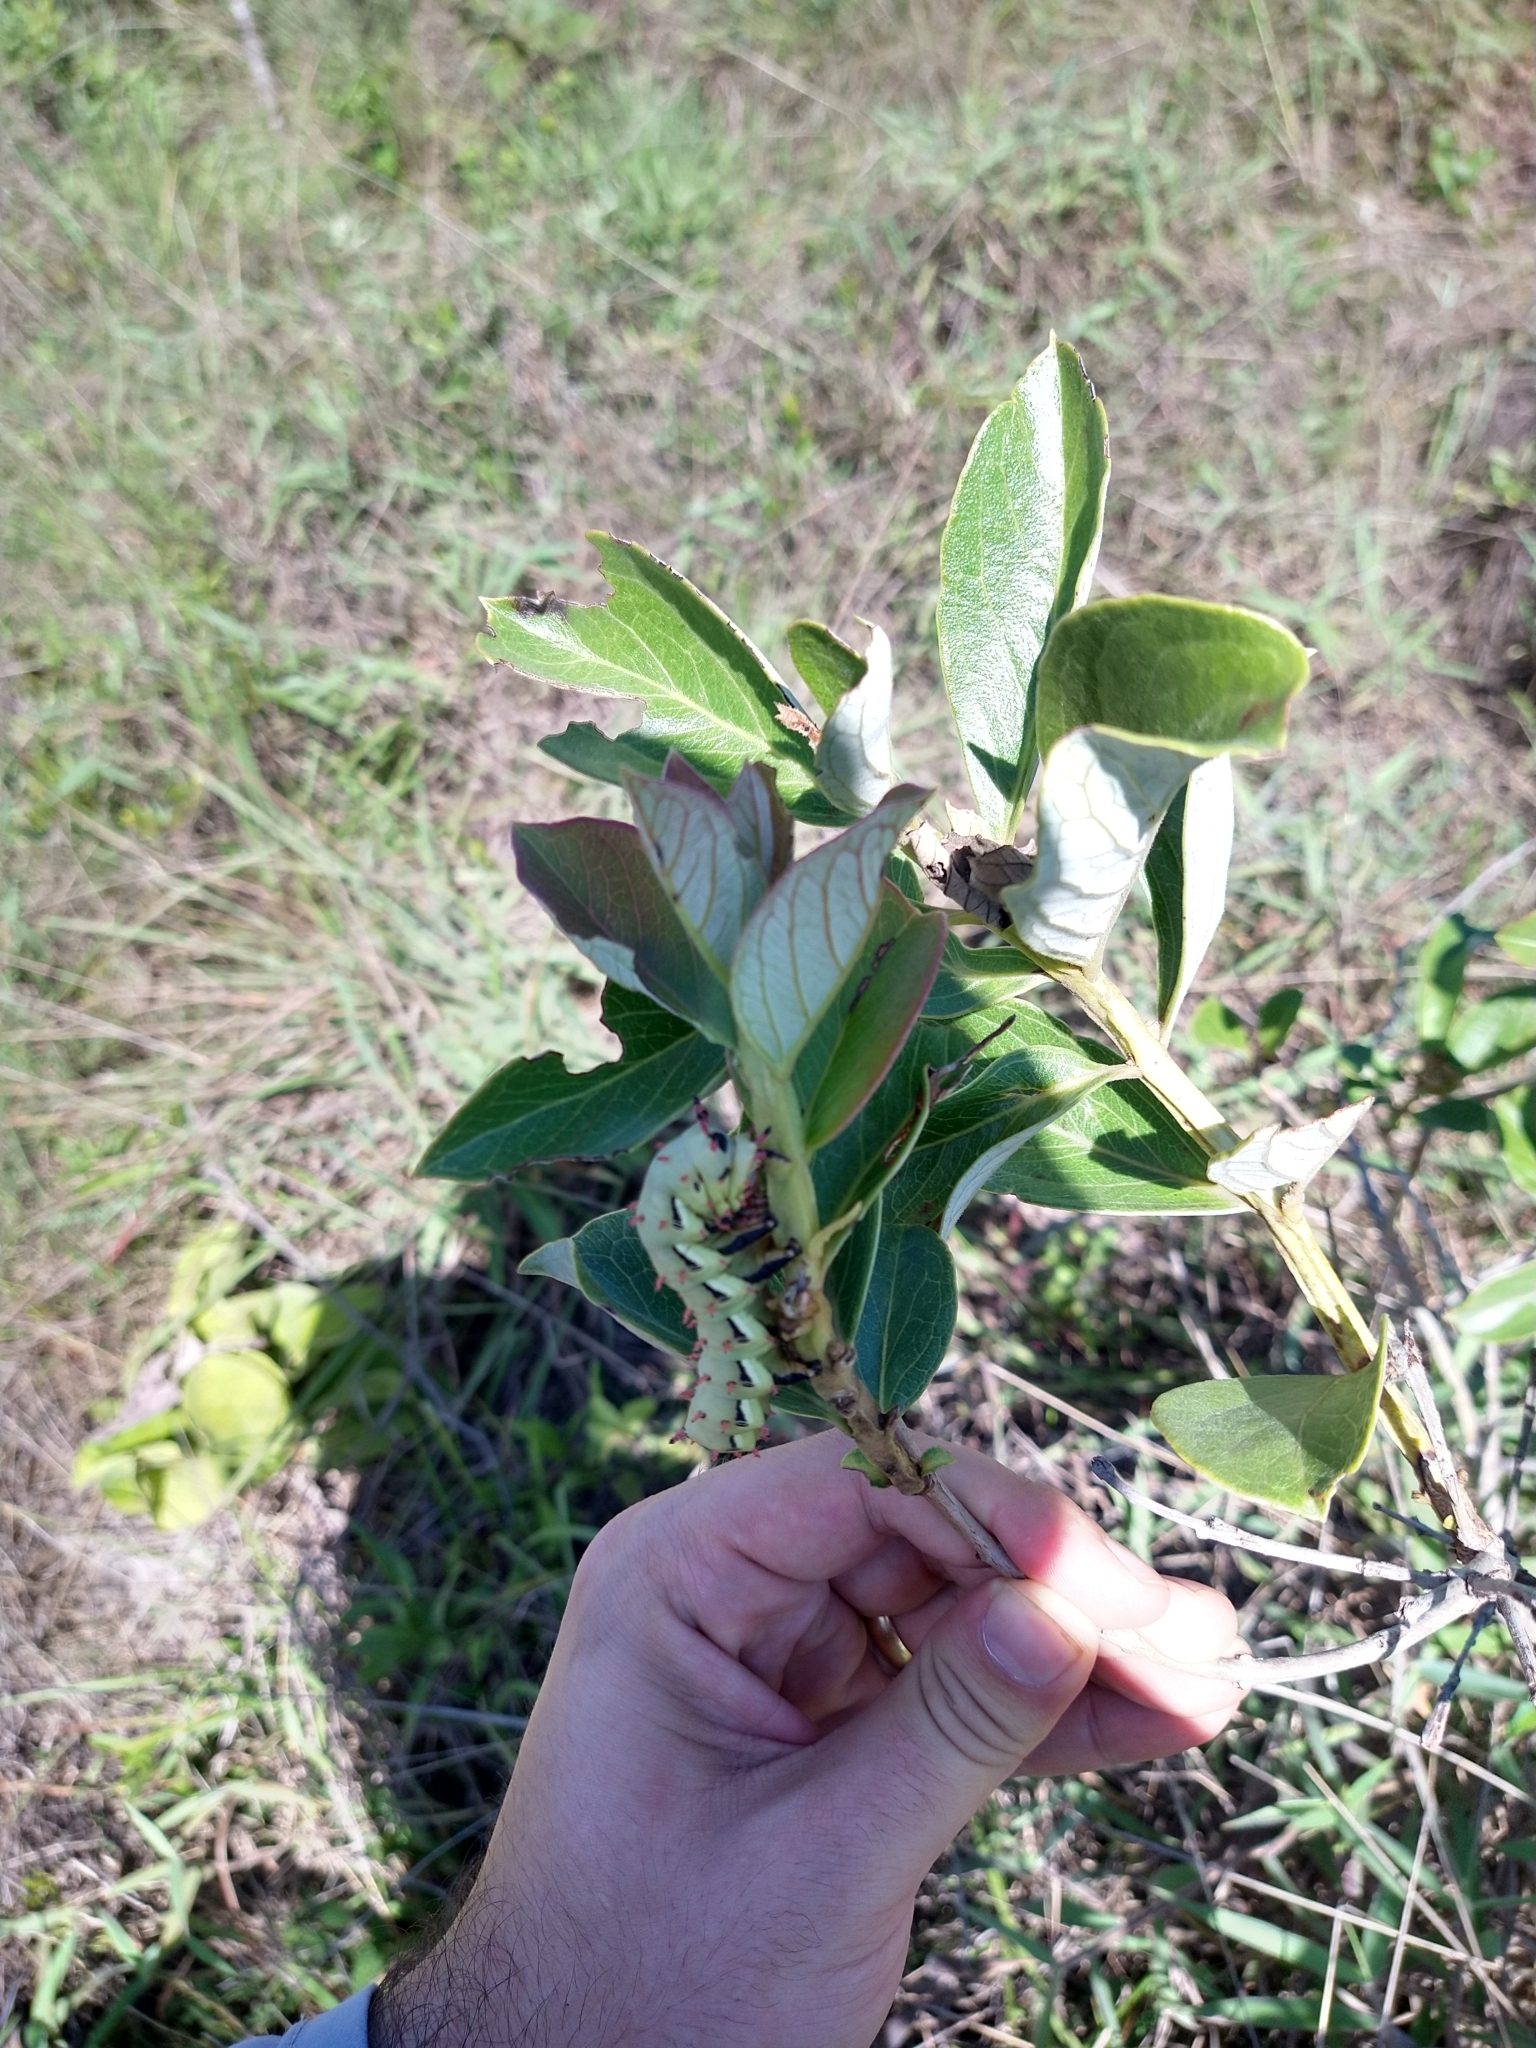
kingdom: Animalia
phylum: Arthropoda
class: Insecta
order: Lepidoptera
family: Saturniidae
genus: Citheronia
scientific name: Citheronia laocoon
